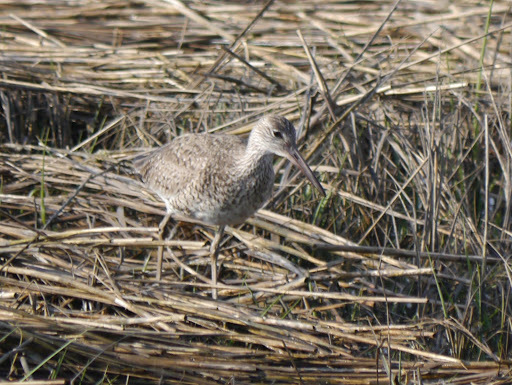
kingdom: Animalia
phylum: Chordata
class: Aves
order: Charadriiformes
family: Scolopacidae
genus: Tringa
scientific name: Tringa semipalmata
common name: Willet
